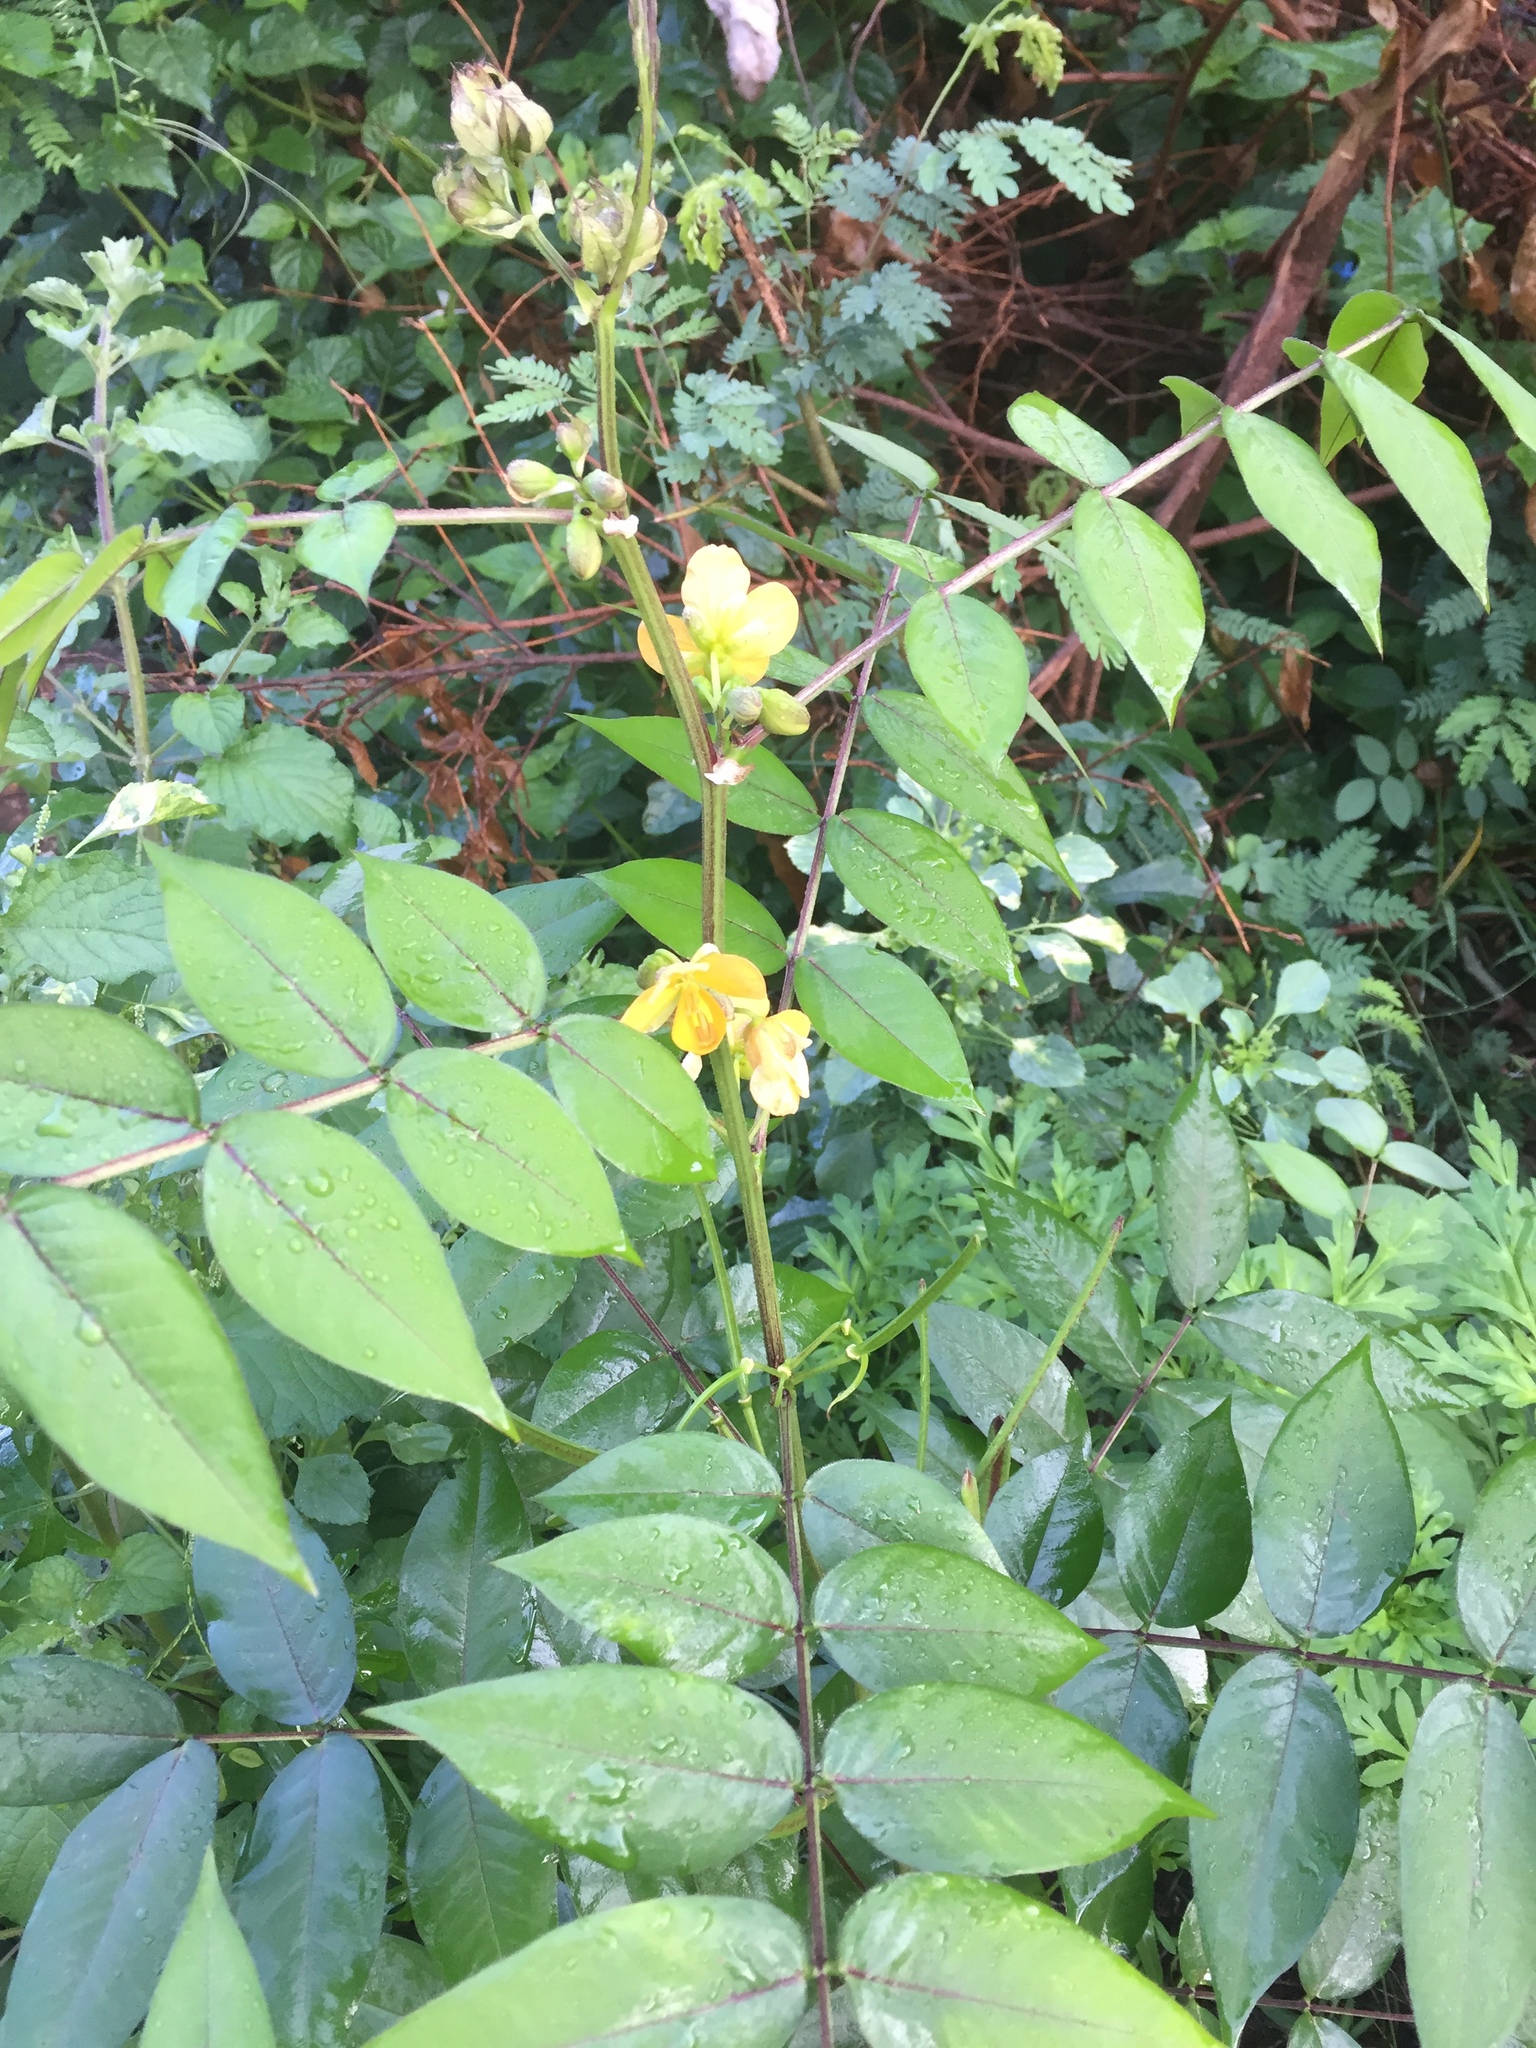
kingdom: Plantae
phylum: Tracheophyta
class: Magnoliopsida
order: Fabales
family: Fabaceae
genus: Senna
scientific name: Senna occidentalis
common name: Septicweed
